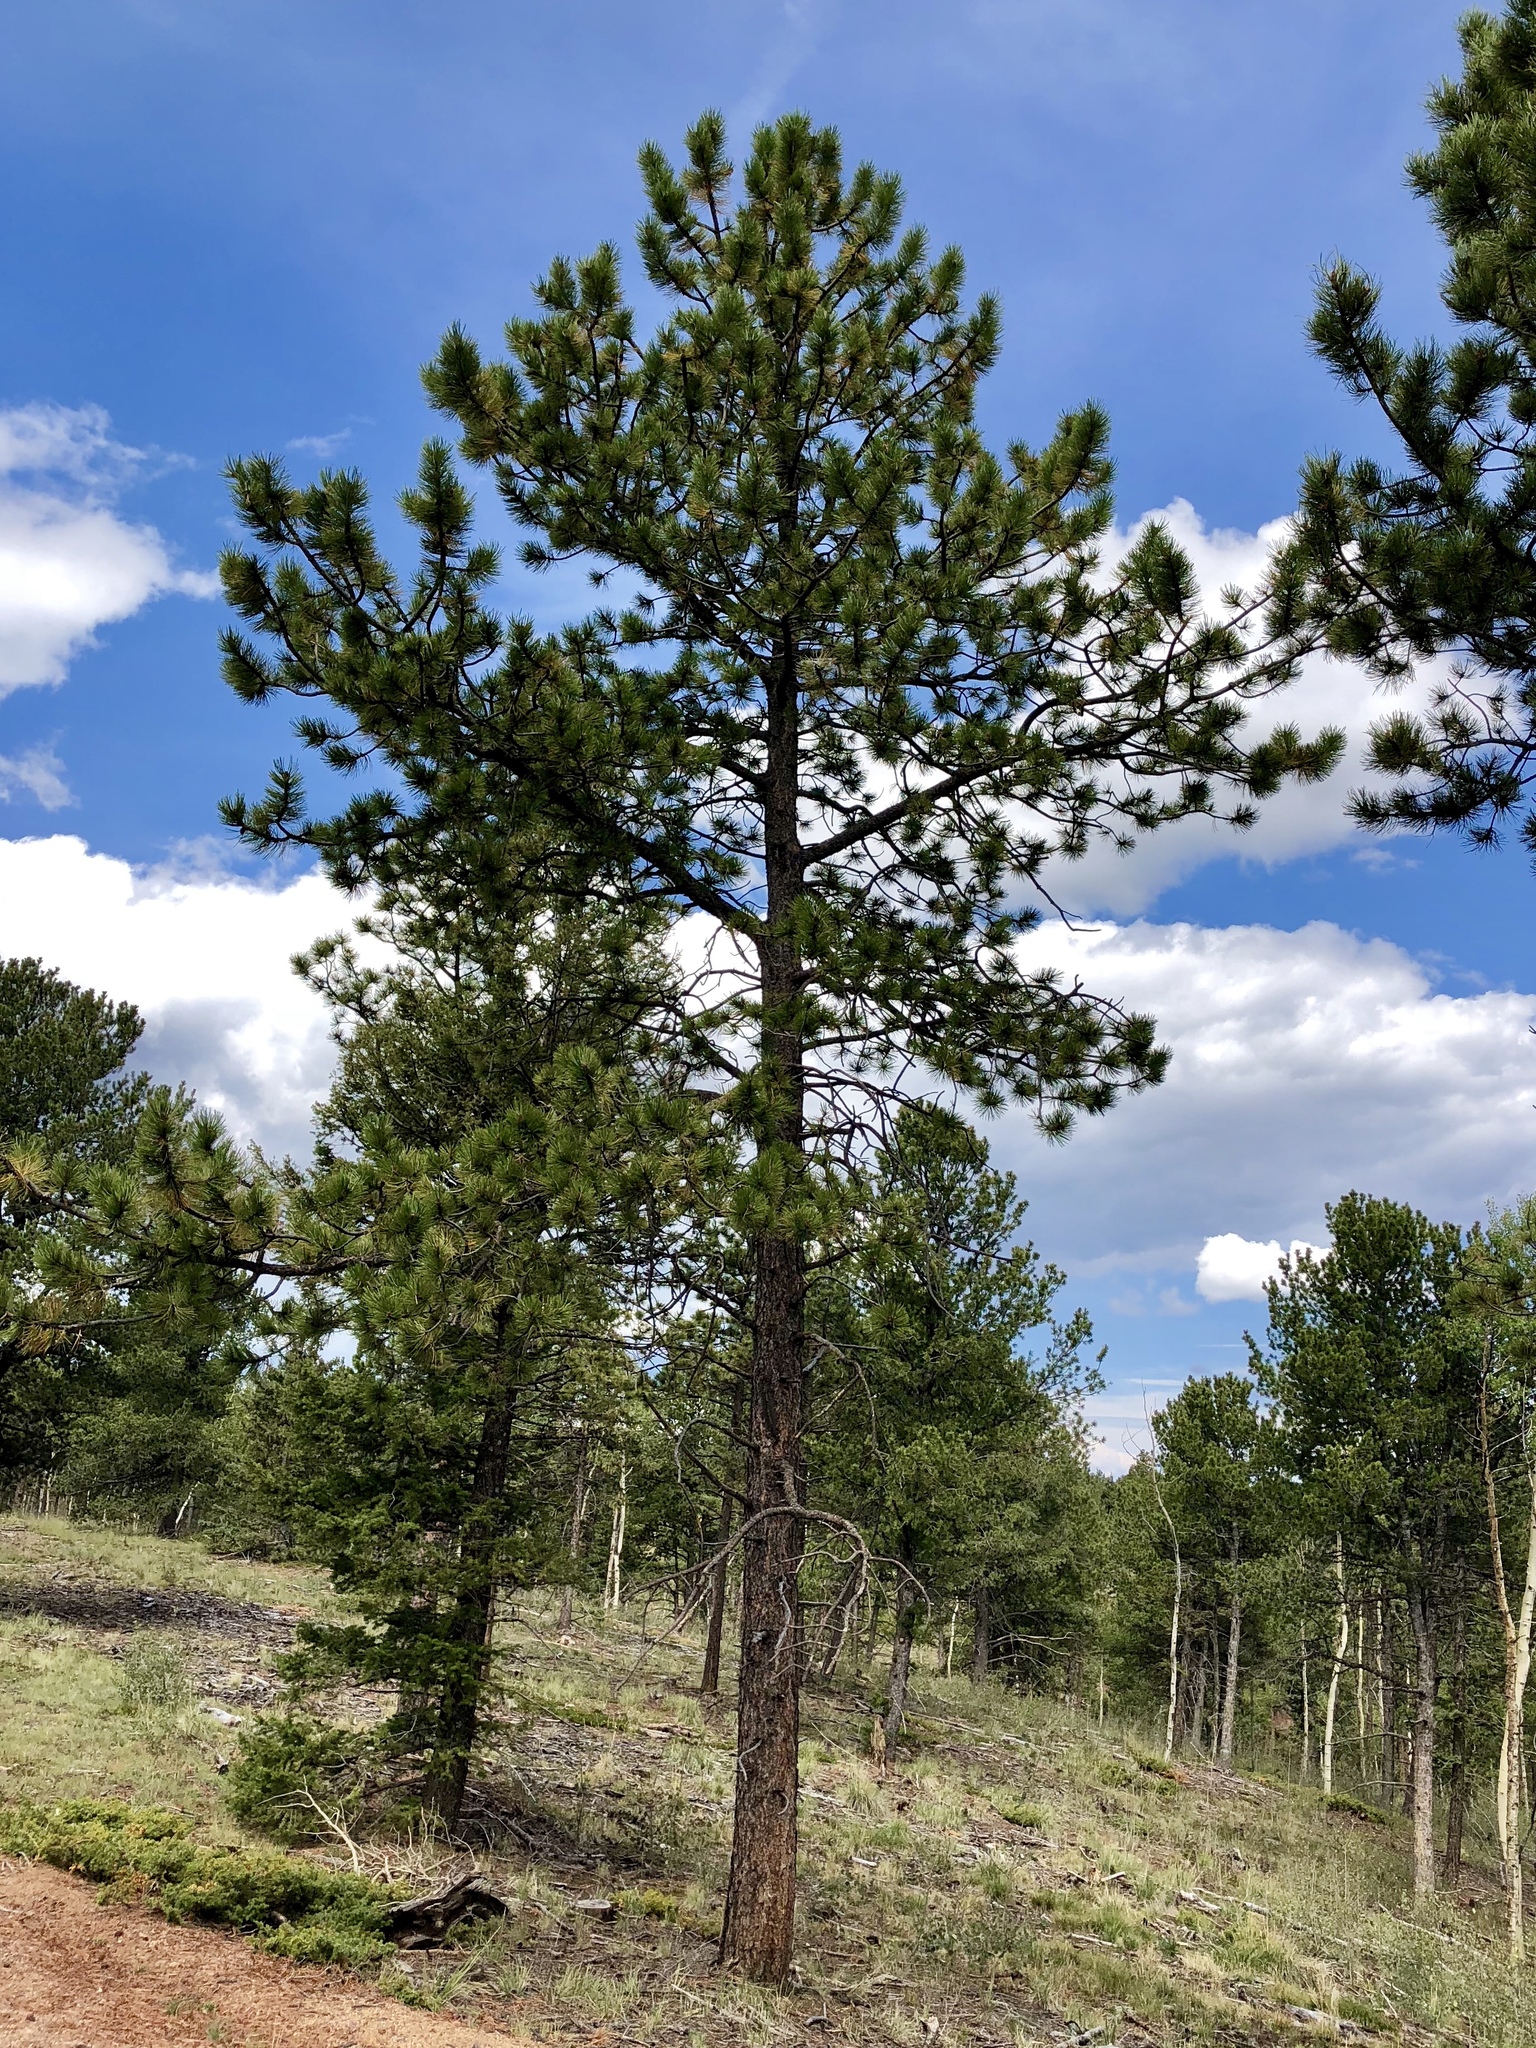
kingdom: Plantae
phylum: Tracheophyta
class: Pinopsida
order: Pinales
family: Pinaceae
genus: Pinus
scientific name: Pinus ponderosa
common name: Western yellow-pine
